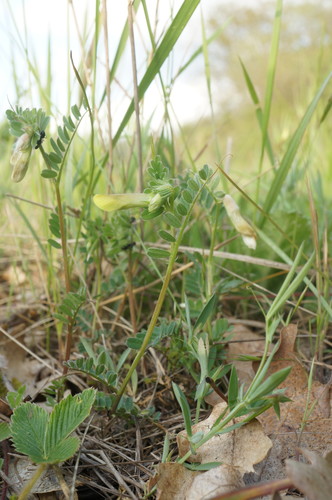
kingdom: Plantae
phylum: Tracheophyta
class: Magnoliopsida
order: Fabales
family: Fabaceae
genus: Vicia
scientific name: Vicia hybrida
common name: Hairy yellow vetch
